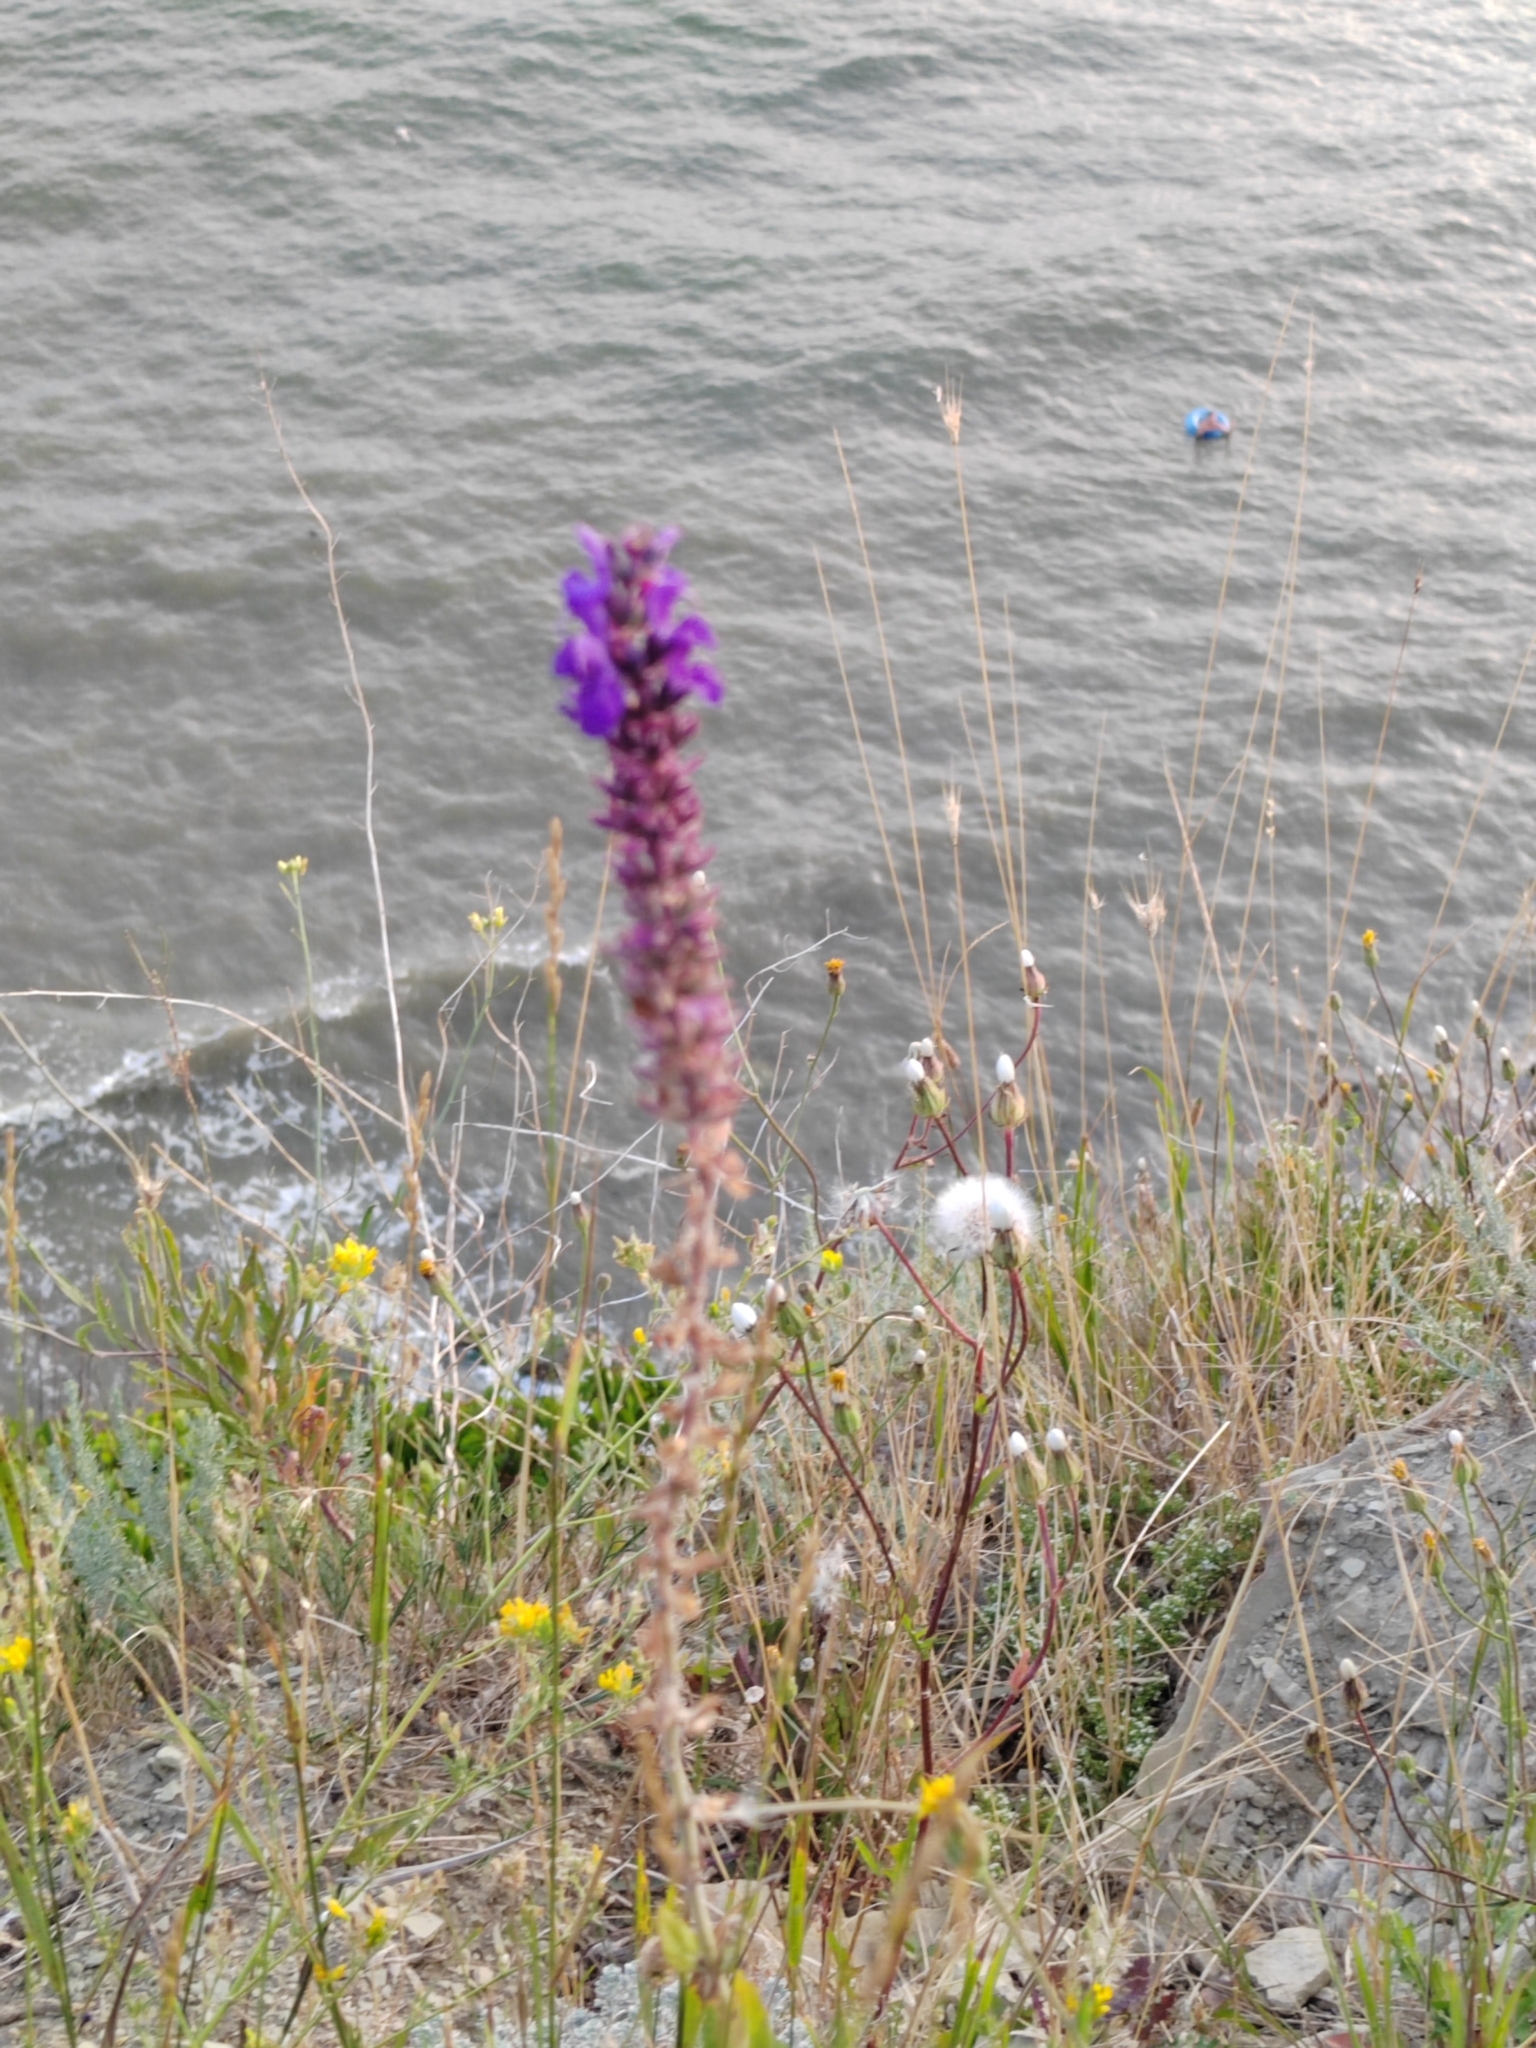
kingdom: Plantae
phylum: Tracheophyta
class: Magnoliopsida
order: Lamiales
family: Lamiaceae
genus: Salvia
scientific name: Salvia nemorosa
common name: Balkan clary
